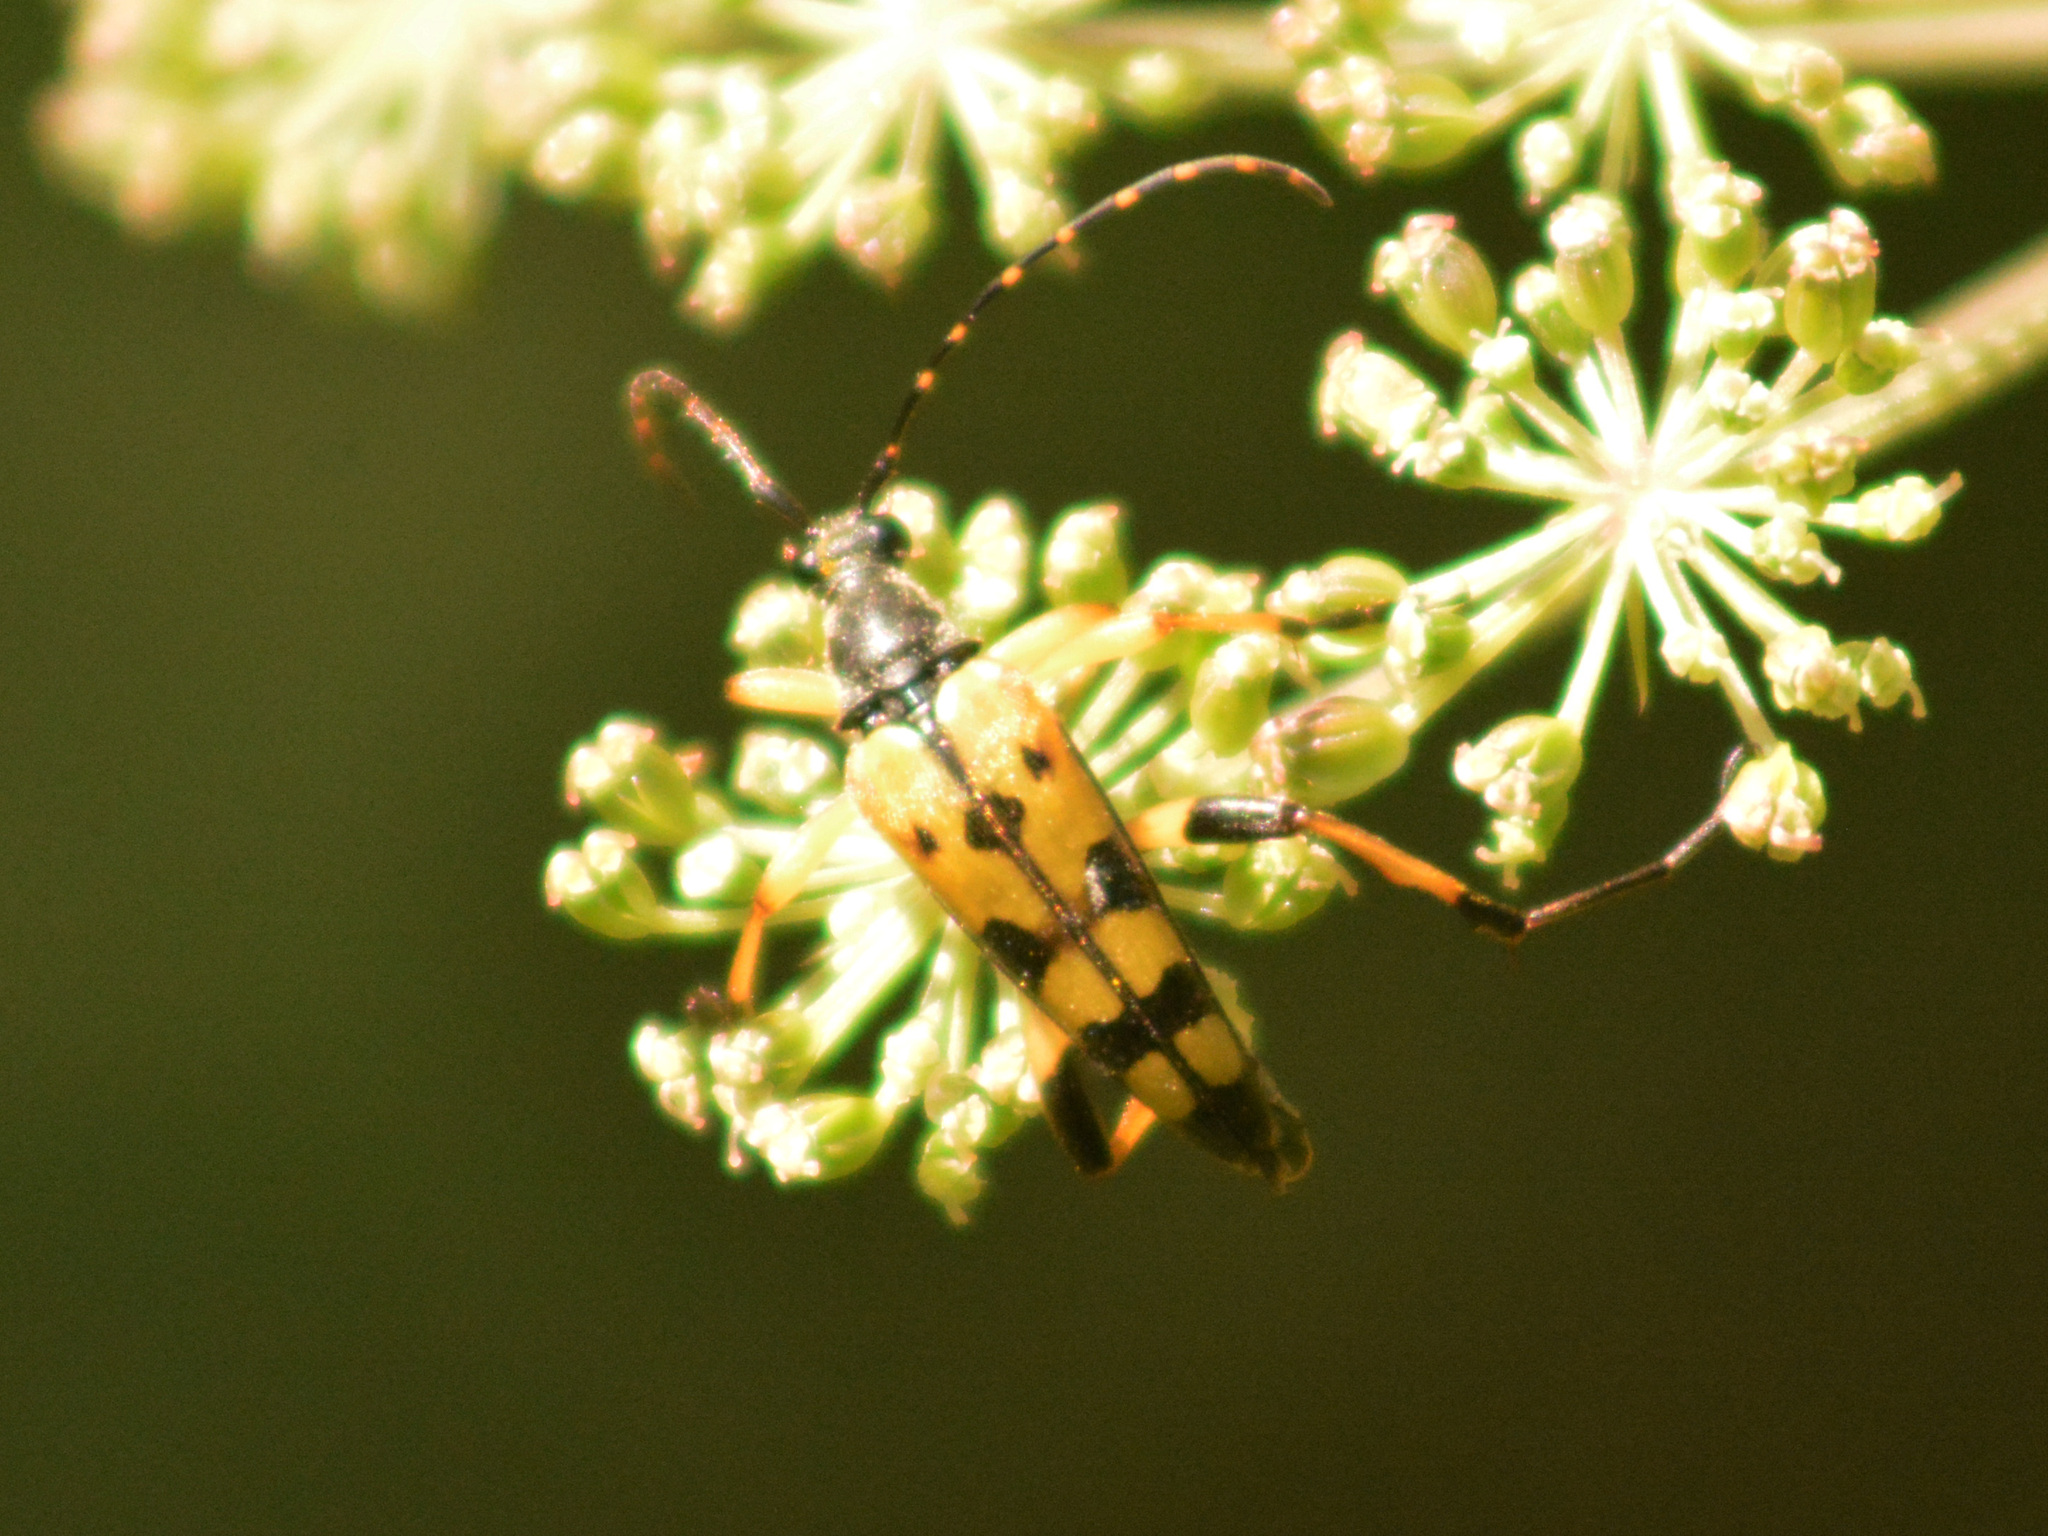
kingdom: Animalia
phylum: Arthropoda
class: Insecta
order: Coleoptera
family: Cerambycidae
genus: Rutpela
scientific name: Rutpela maculata
